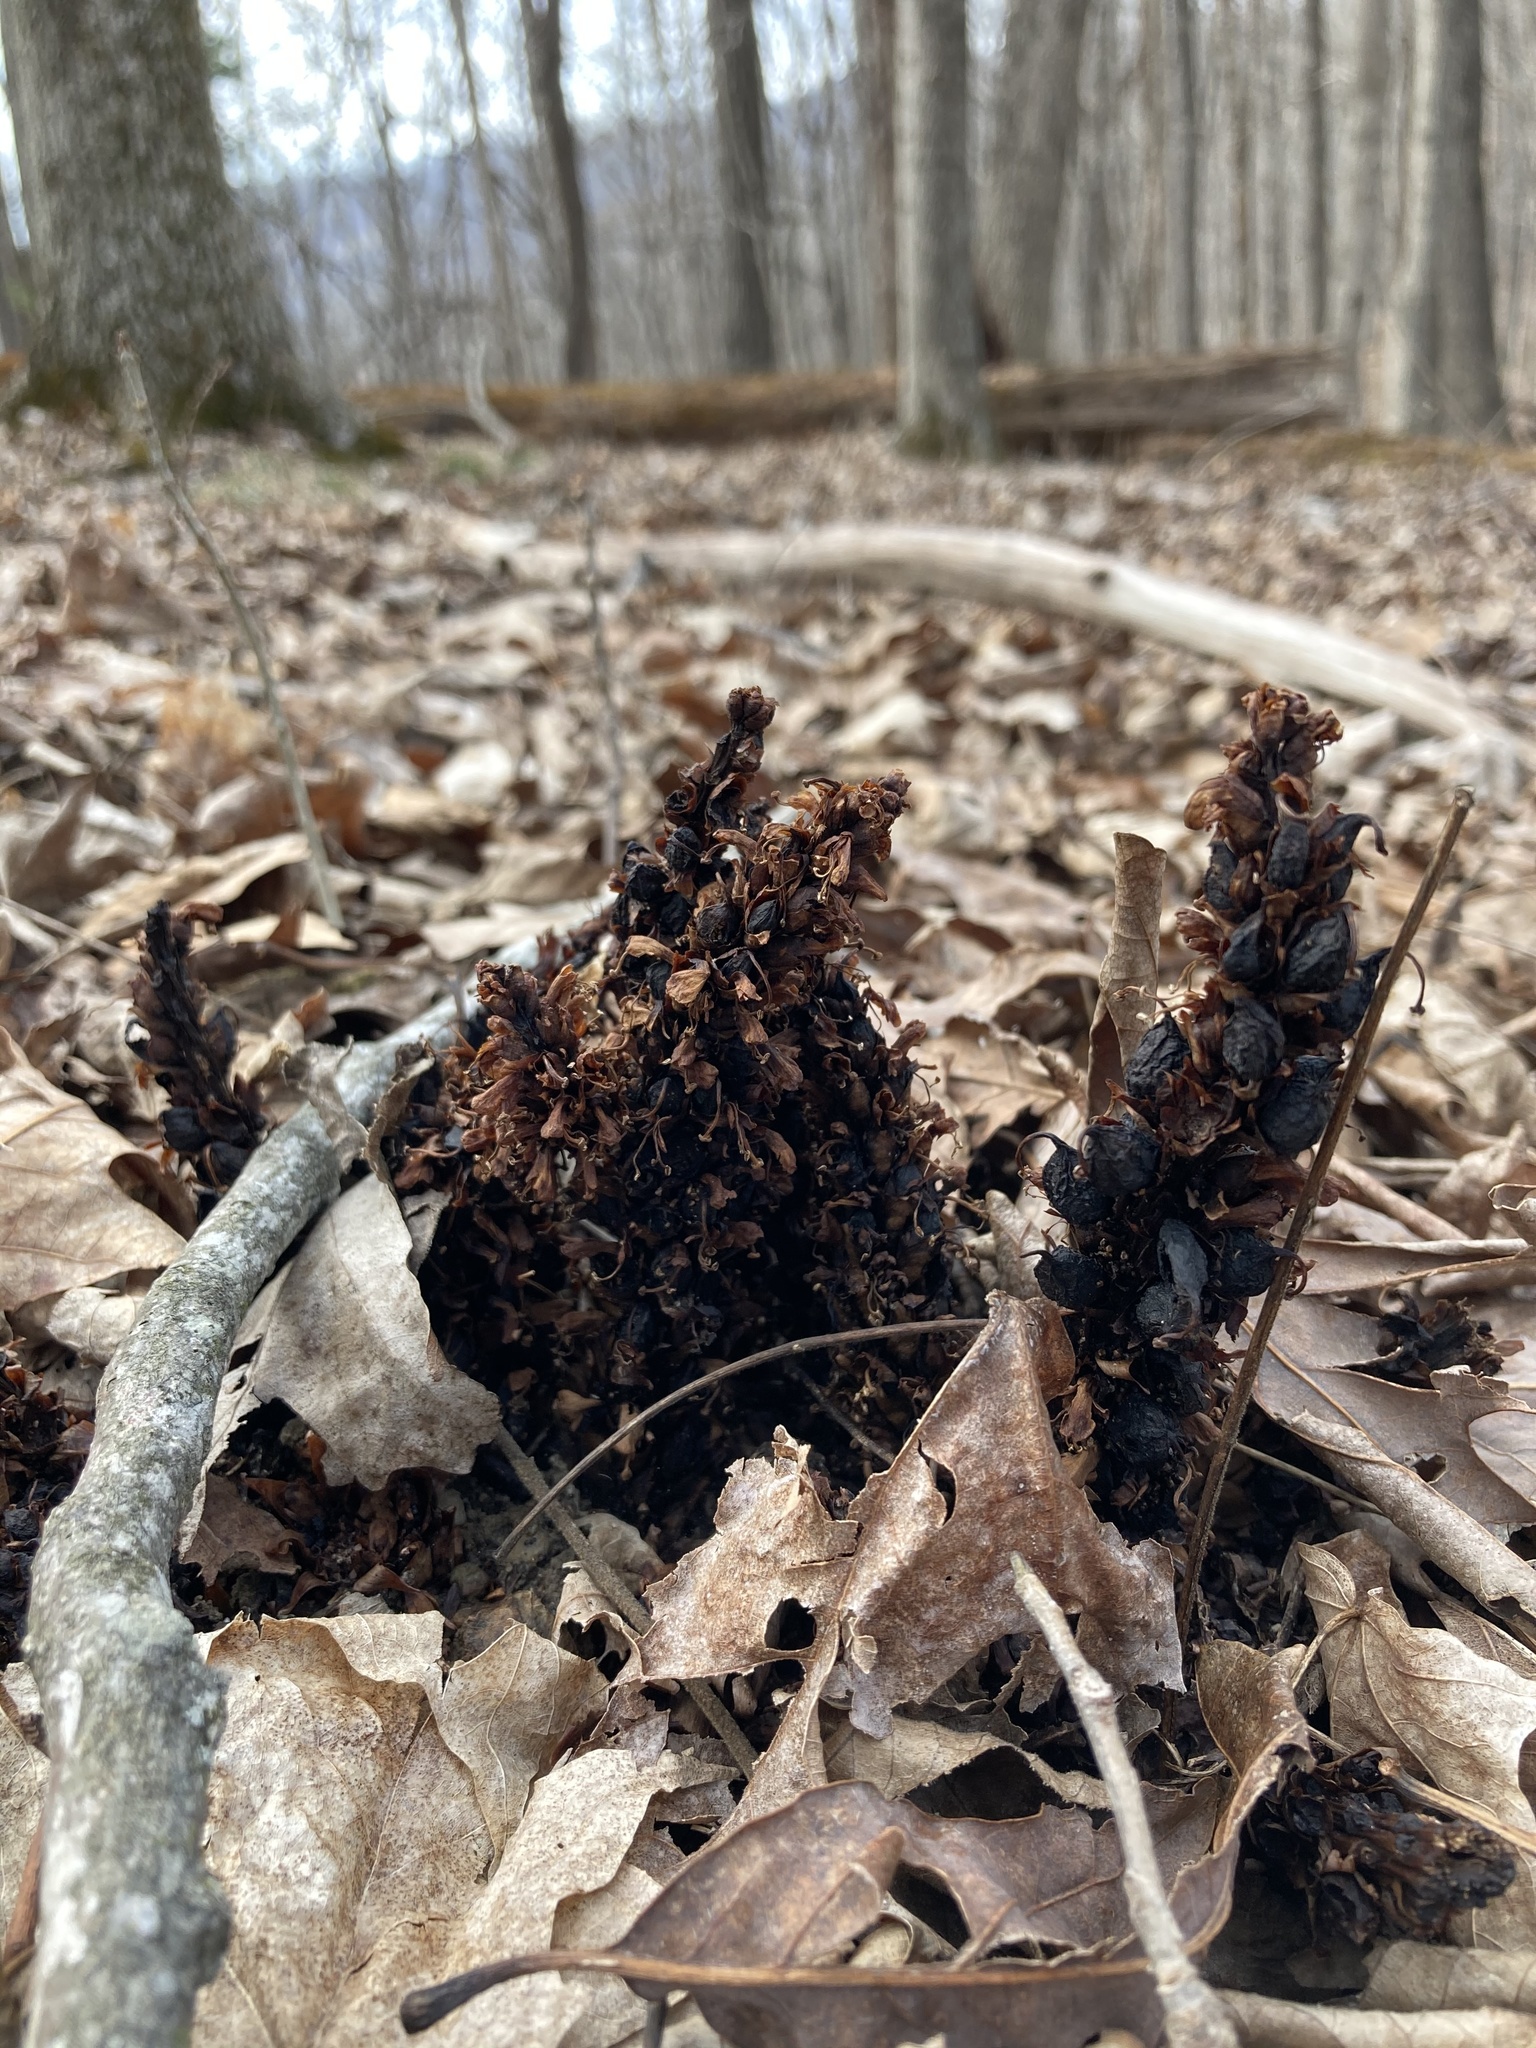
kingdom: Plantae
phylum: Tracheophyta
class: Magnoliopsida
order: Lamiales
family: Orobanchaceae
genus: Conopholis
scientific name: Conopholis americana
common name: American cancer-root
